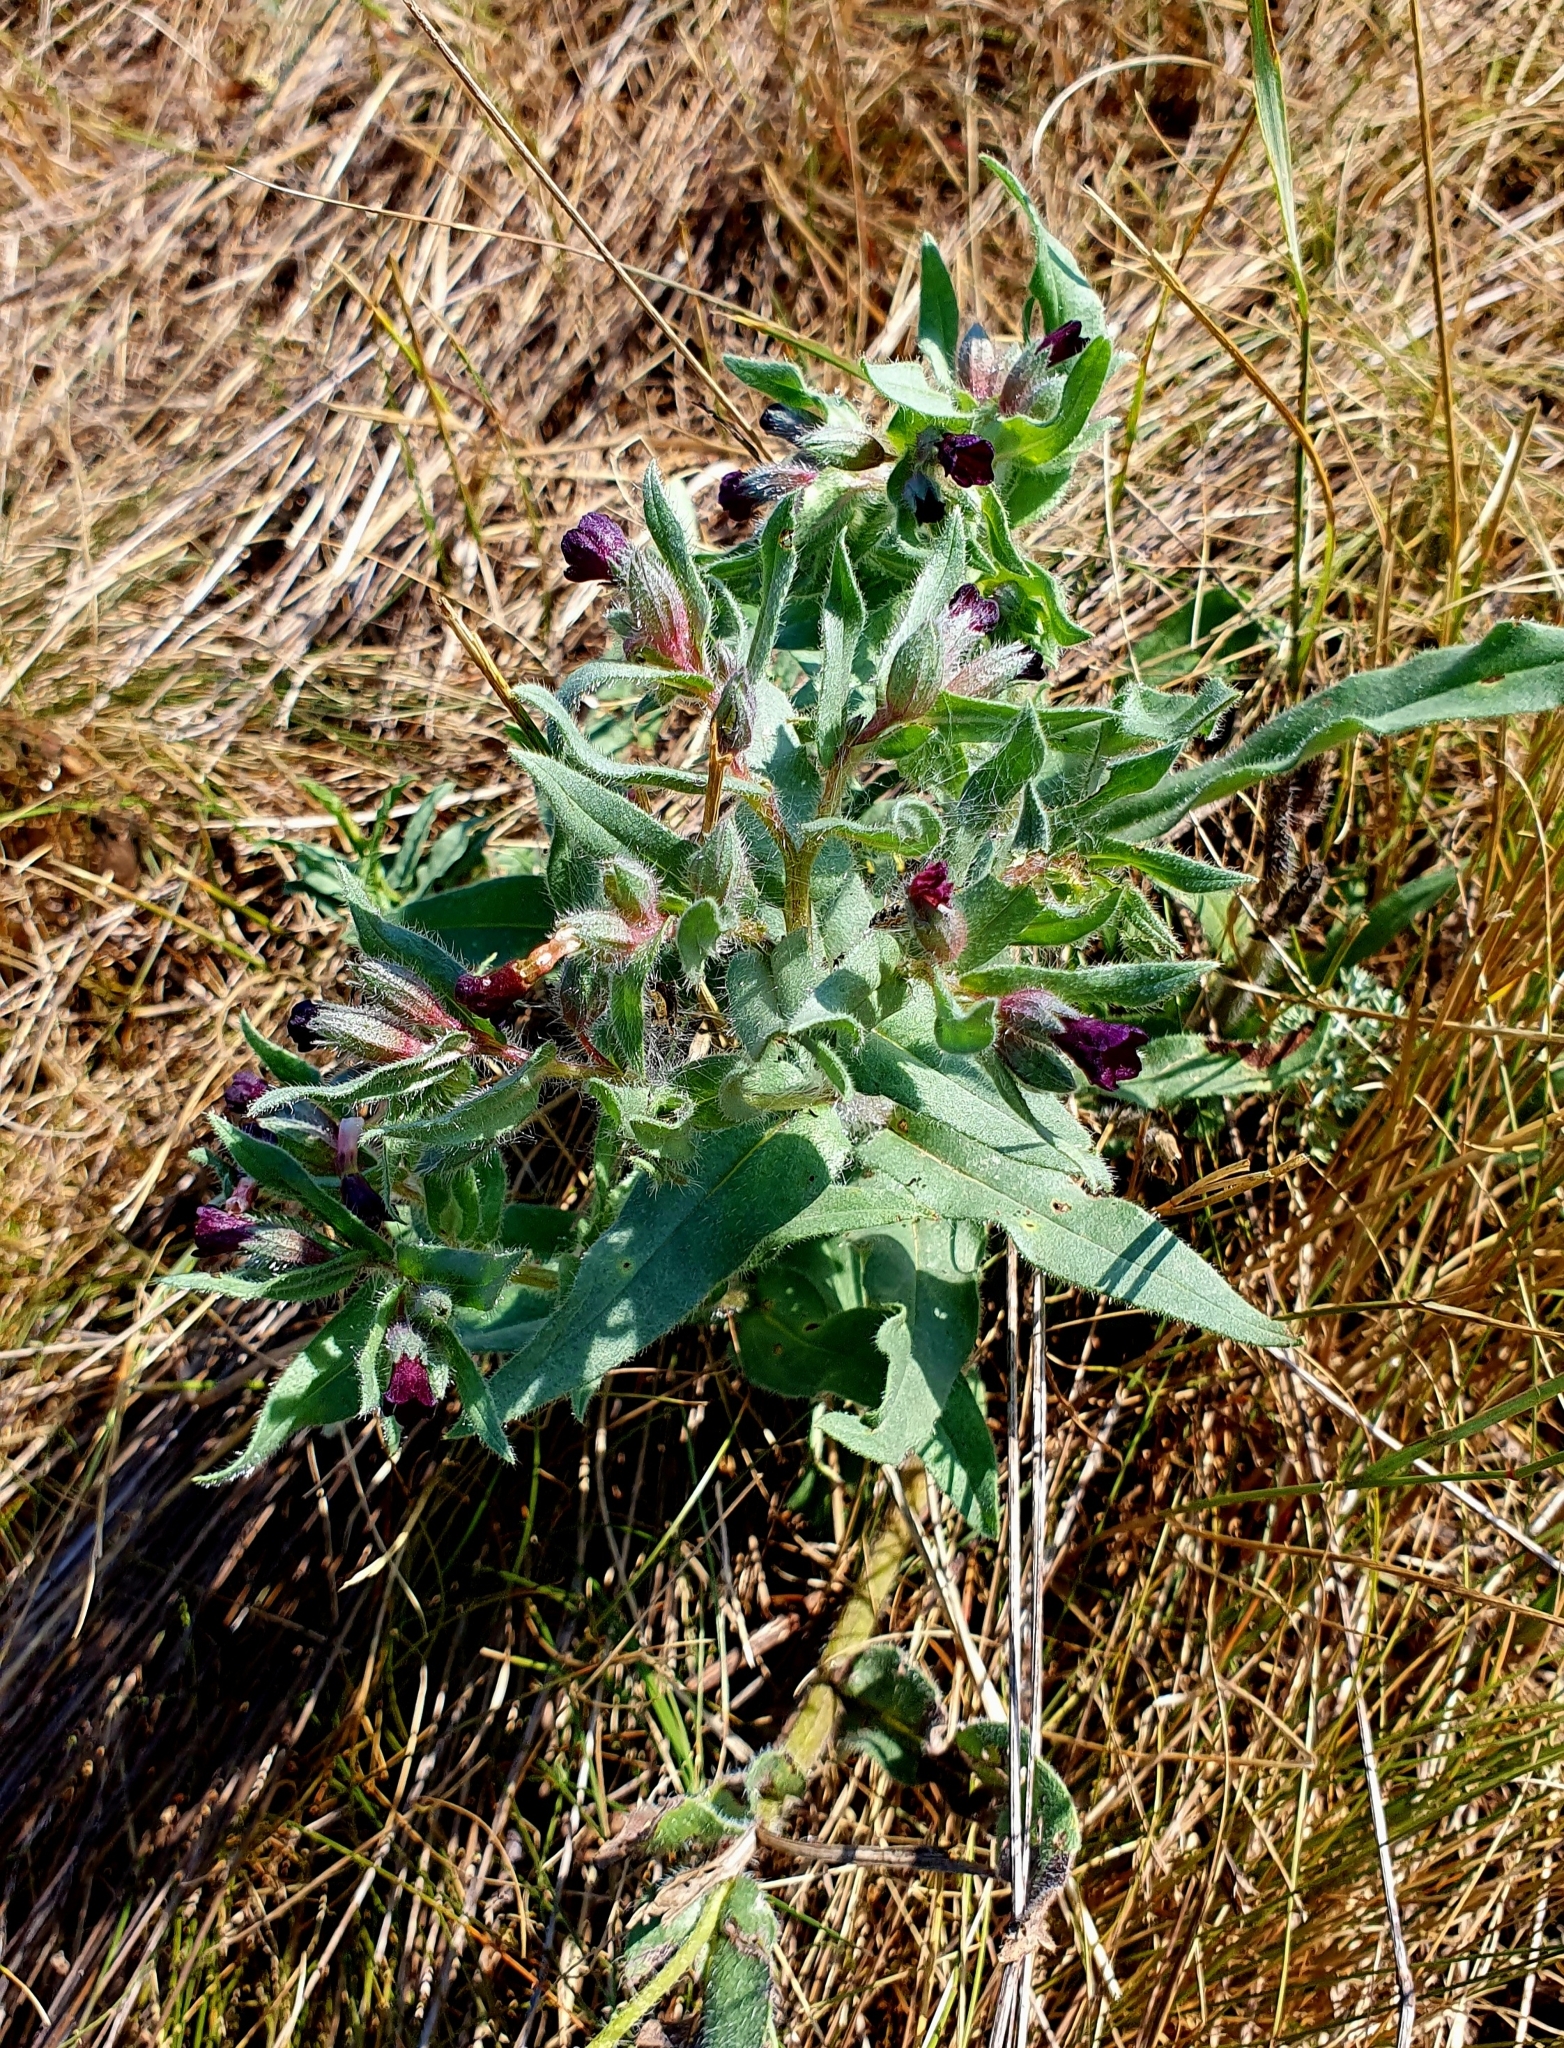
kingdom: Plantae
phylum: Tracheophyta
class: Magnoliopsida
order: Boraginales
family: Boraginaceae
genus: Nonea
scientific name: Nonea pulla
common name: Brown nonea
